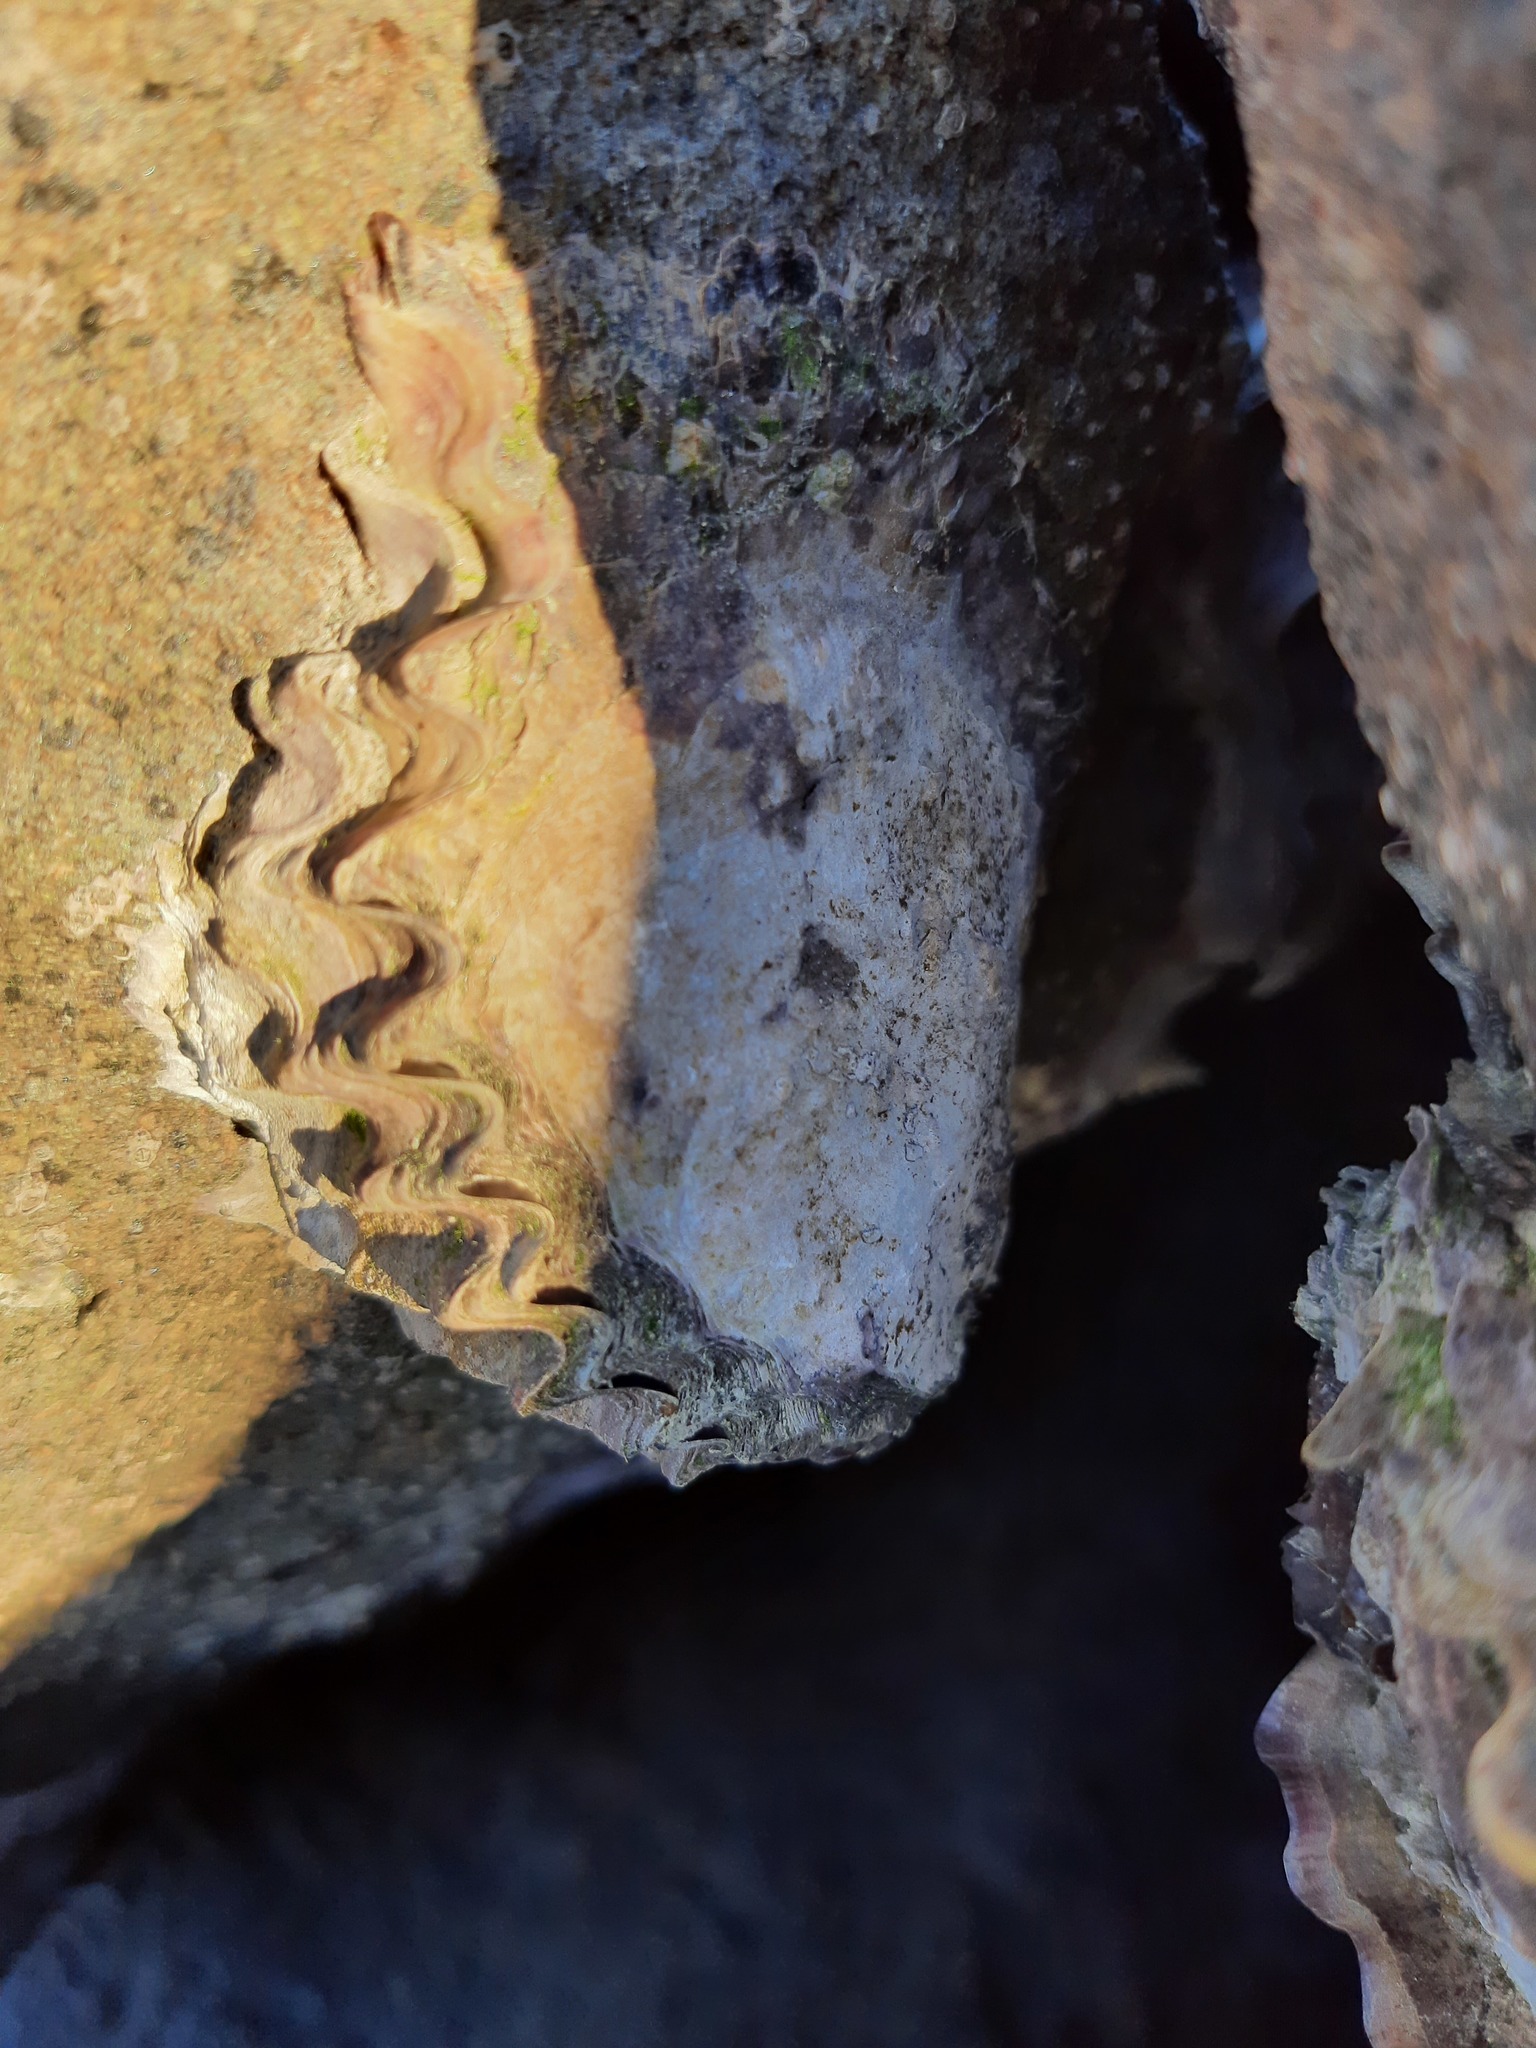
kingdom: Animalia
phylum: Mollusca
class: Bivalvia
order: Ostreida
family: Ostreidae
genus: Saccostrea
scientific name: Saccostrea glomerata
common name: Sydney cupped oyster
